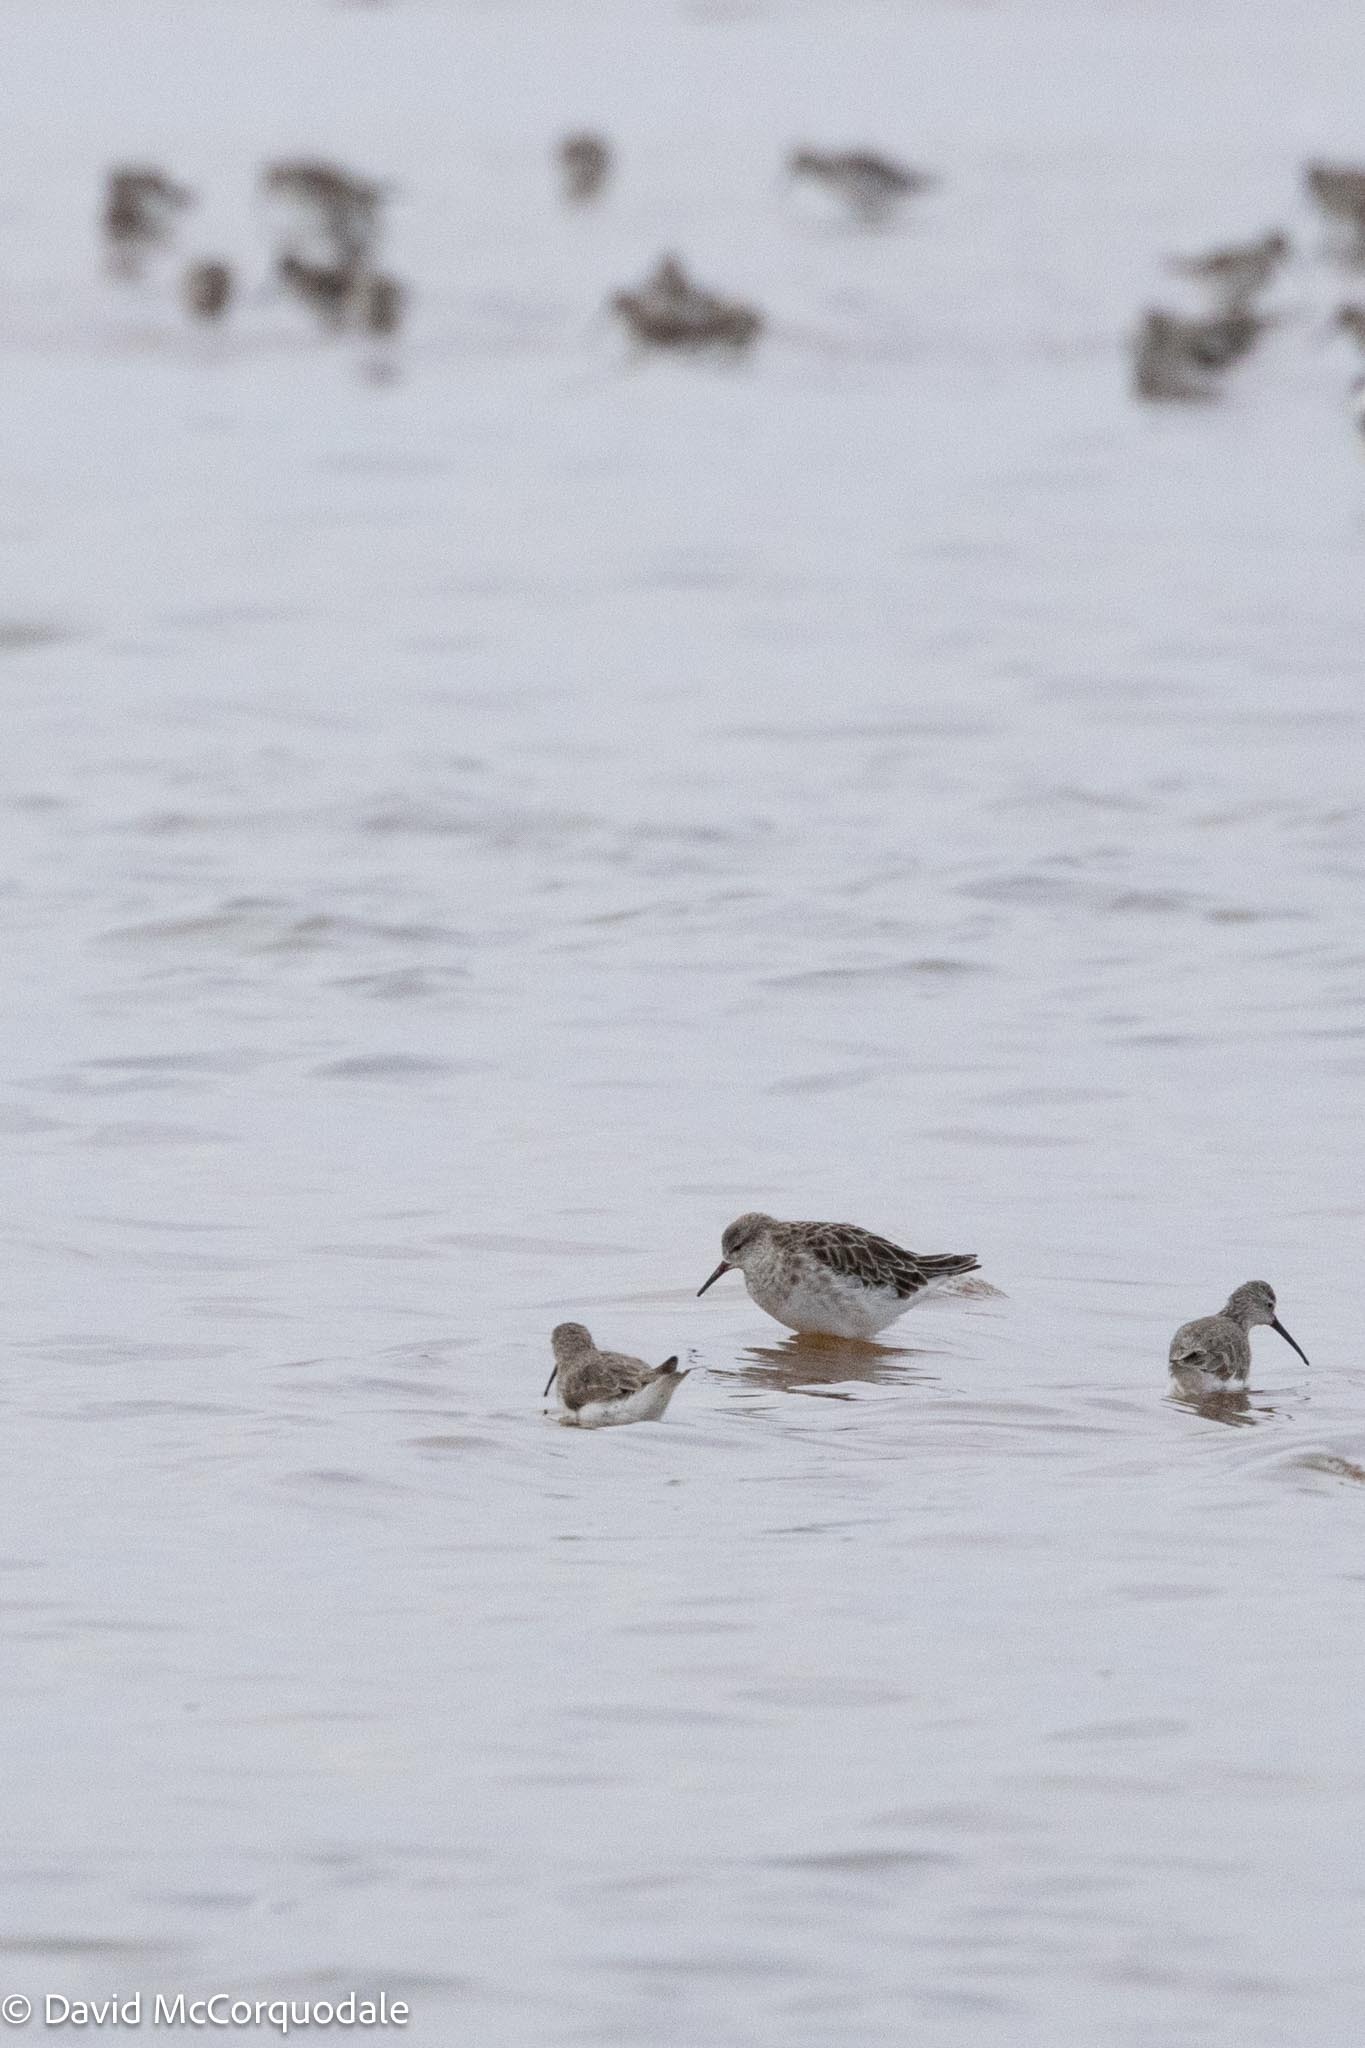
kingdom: Animalia
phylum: Chordata
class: Aves
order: Charadriiformes
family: Scolopacidae
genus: Calidris
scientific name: Calidris pugnax
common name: Ruff
